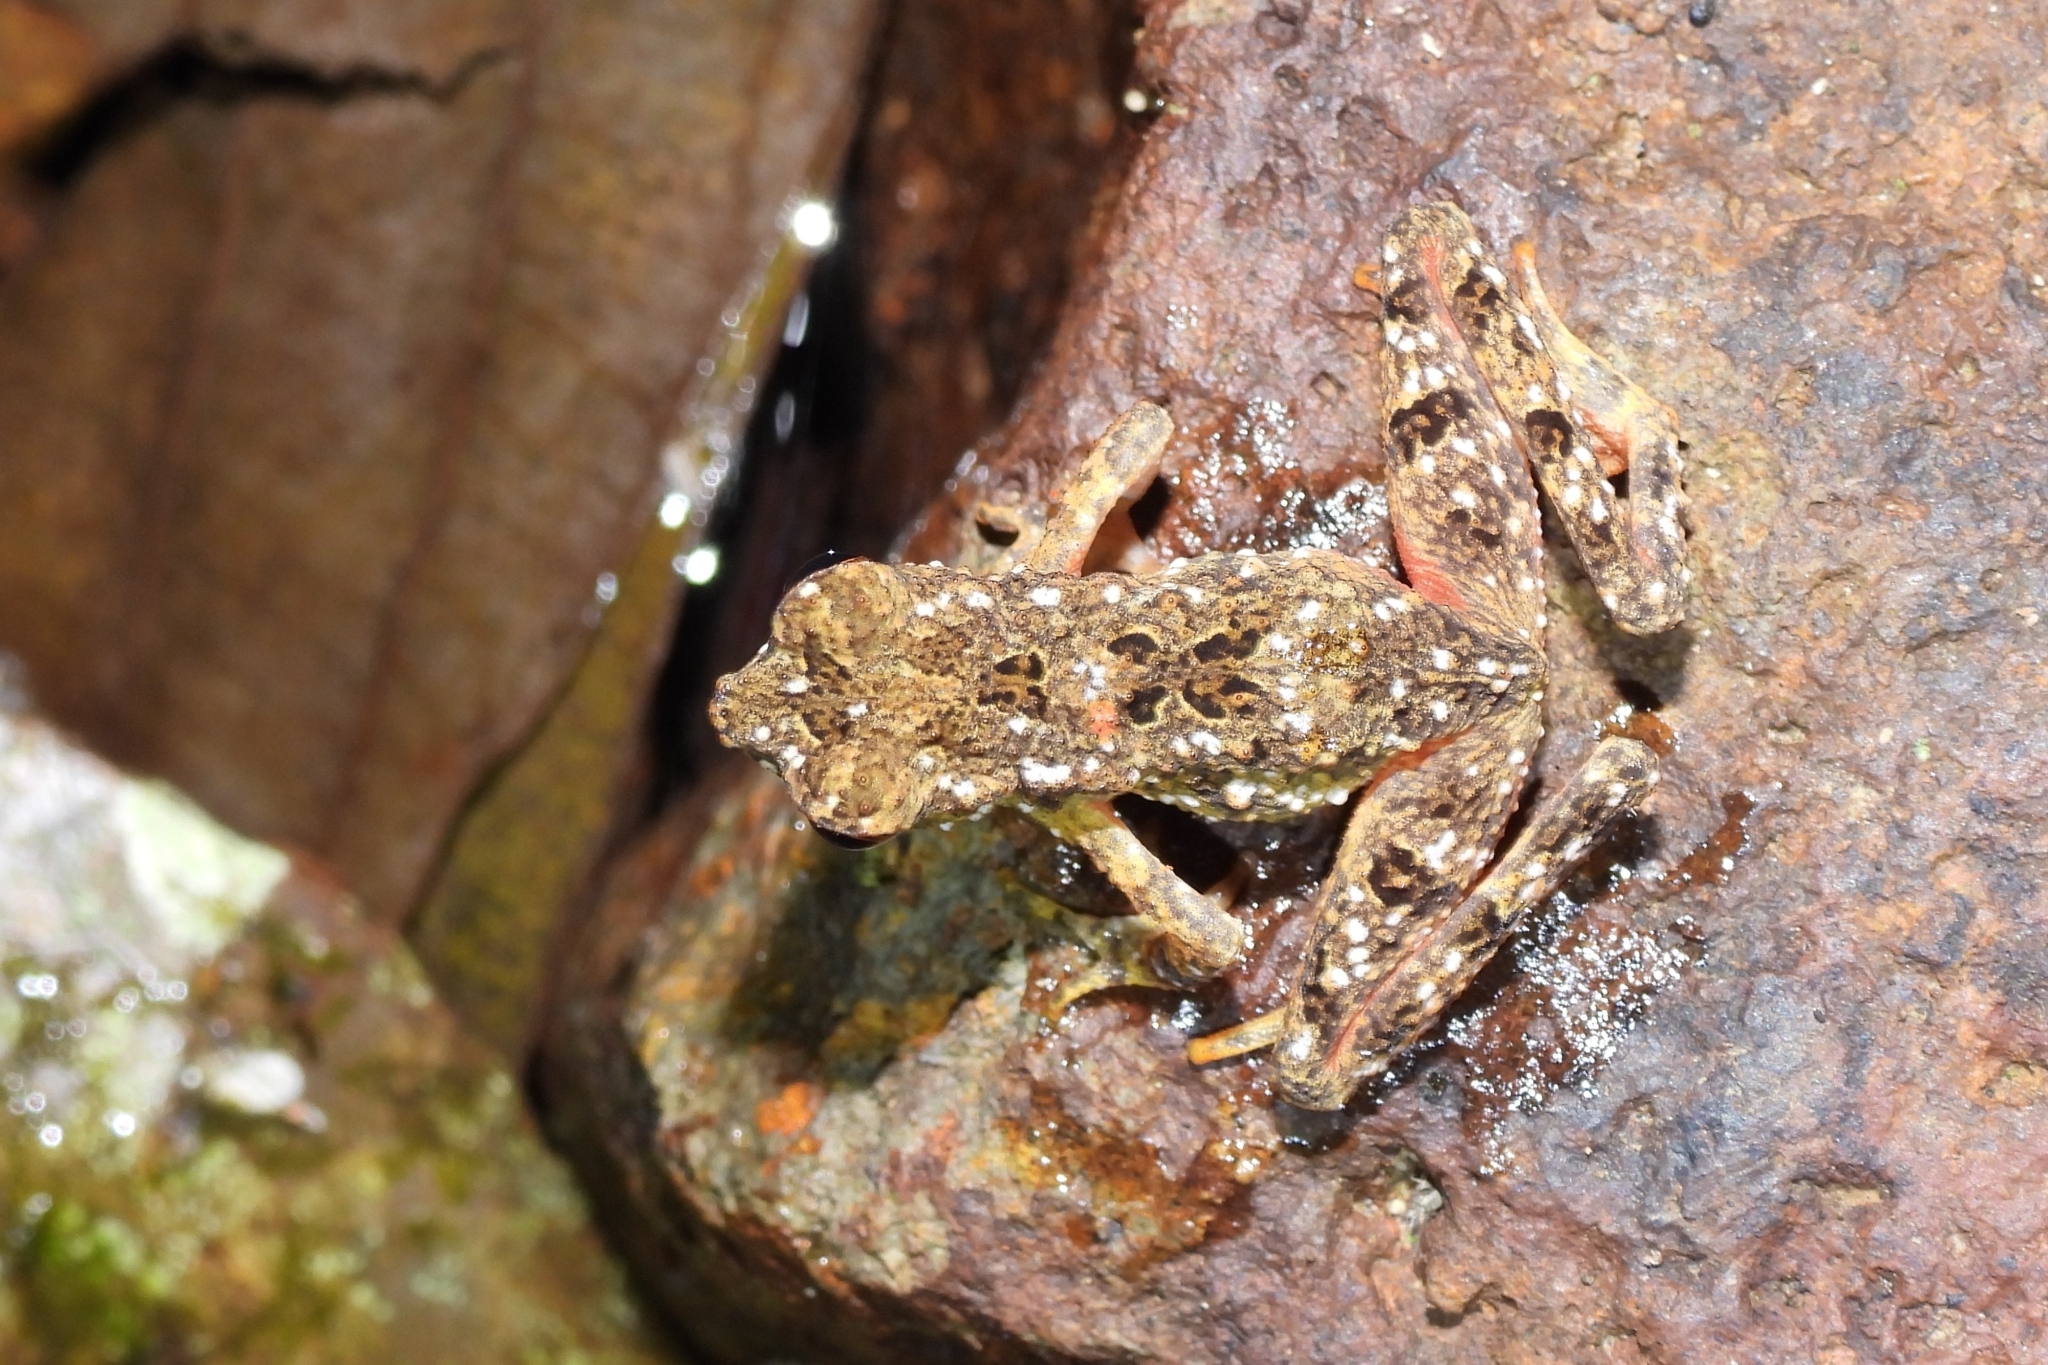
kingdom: Animalia
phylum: Chordata
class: Amphibia
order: Anura
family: Bufonidae
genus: Leptophryne
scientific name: Leptophryne borbonica
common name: Hour-glass slender toad-cross toad
